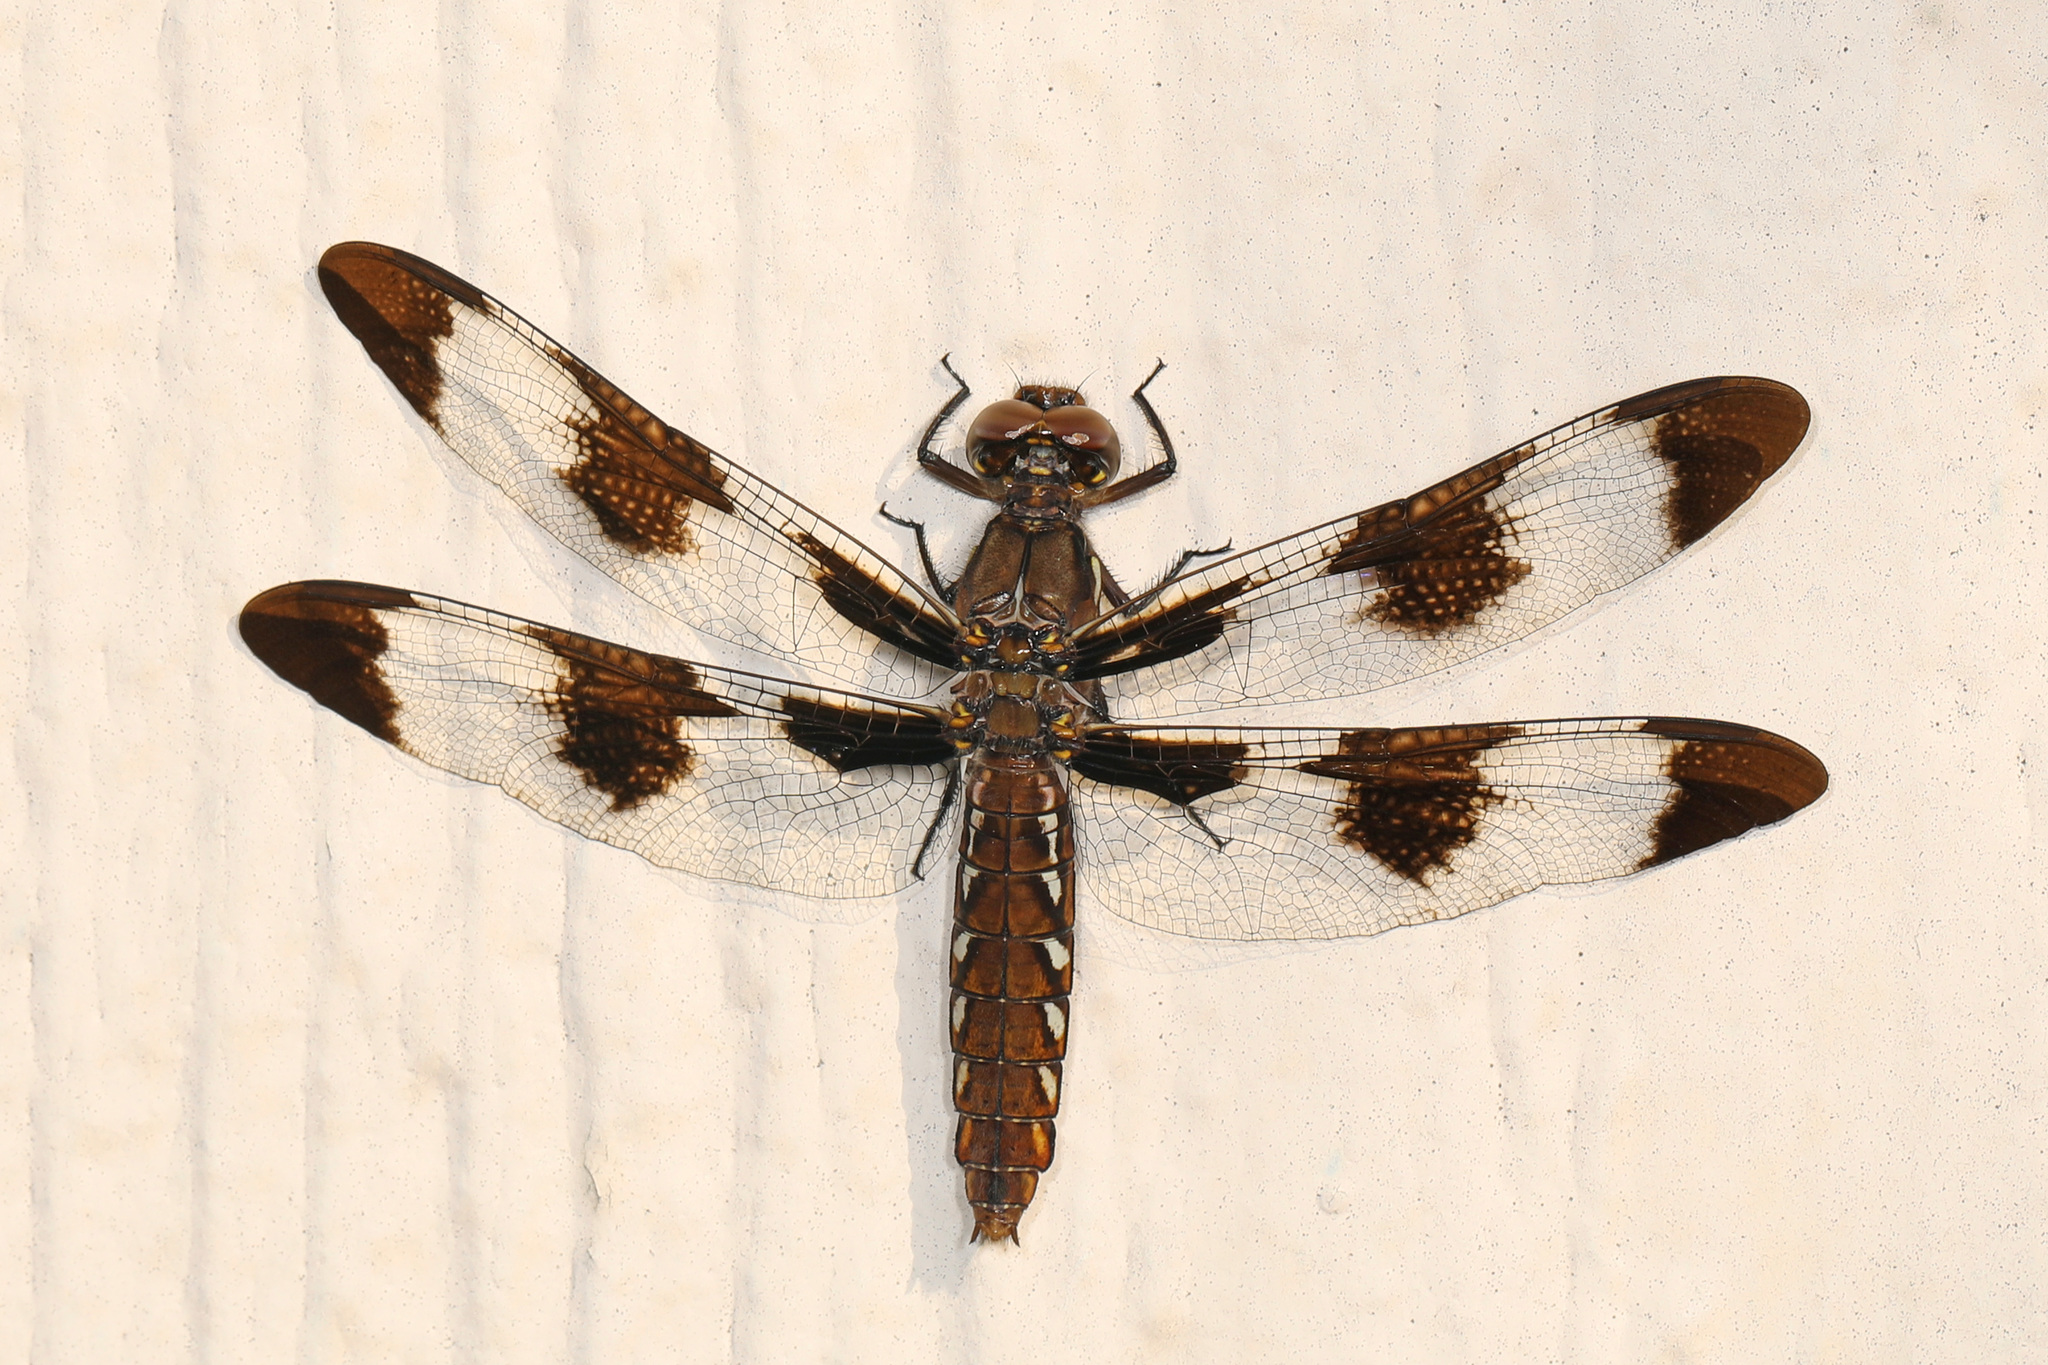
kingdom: Animalia
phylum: Arthropoda
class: Insecta
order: Odonata
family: Libellulidae
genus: Plathemis
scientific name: Plathemis lydia
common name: Common whitetail
